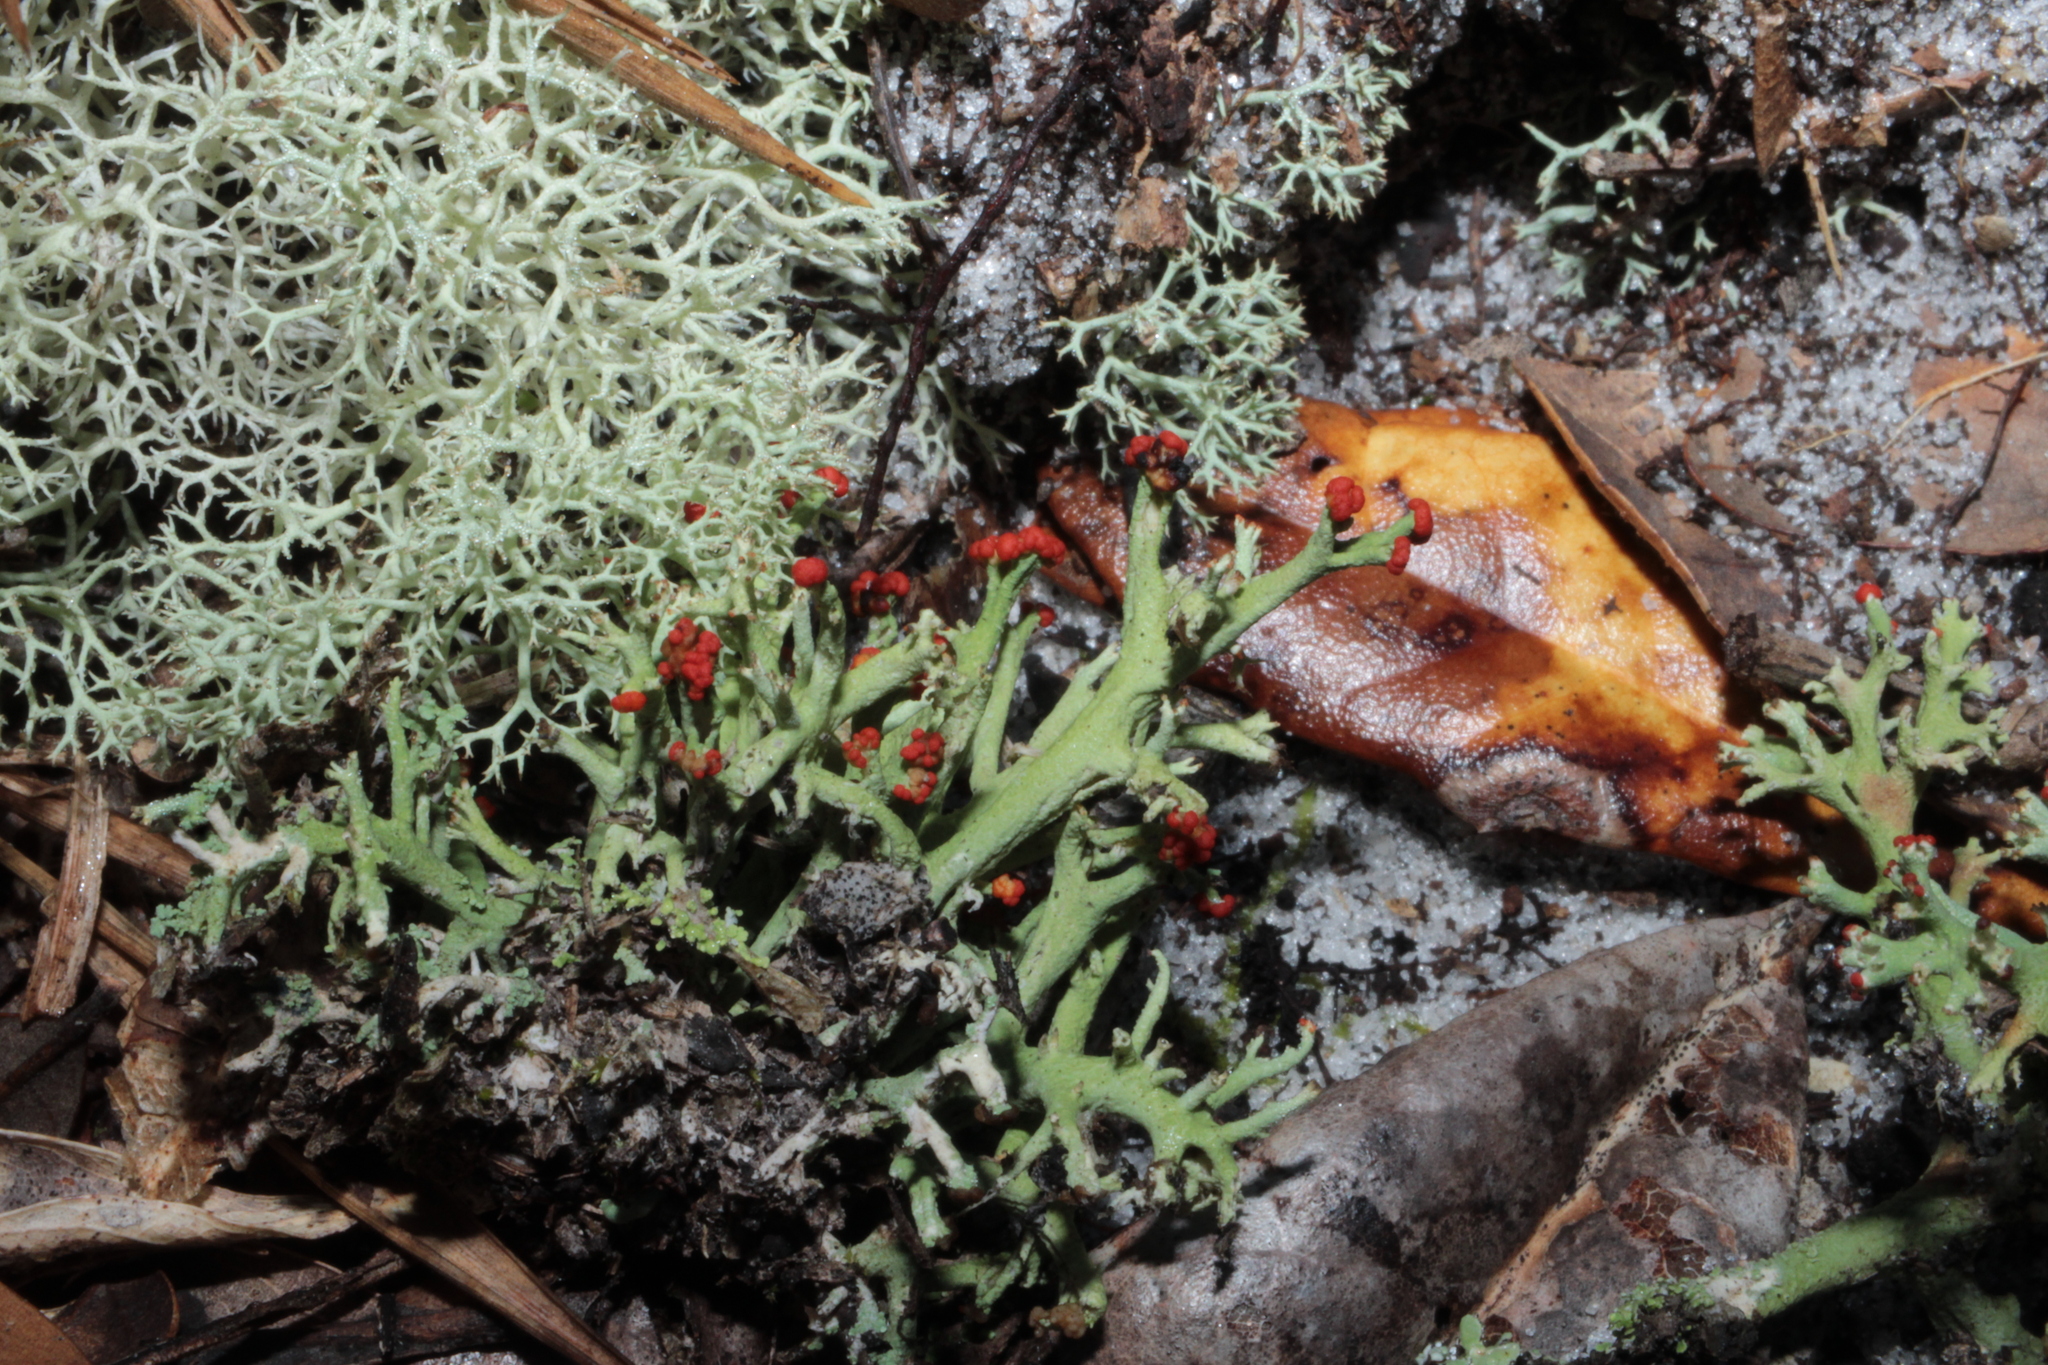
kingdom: Fungi
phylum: Ascomycota
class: Lecanoromycetes
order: Lecanorales
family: Cladoniaceae
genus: Cladonia
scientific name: Cladonia leporina
